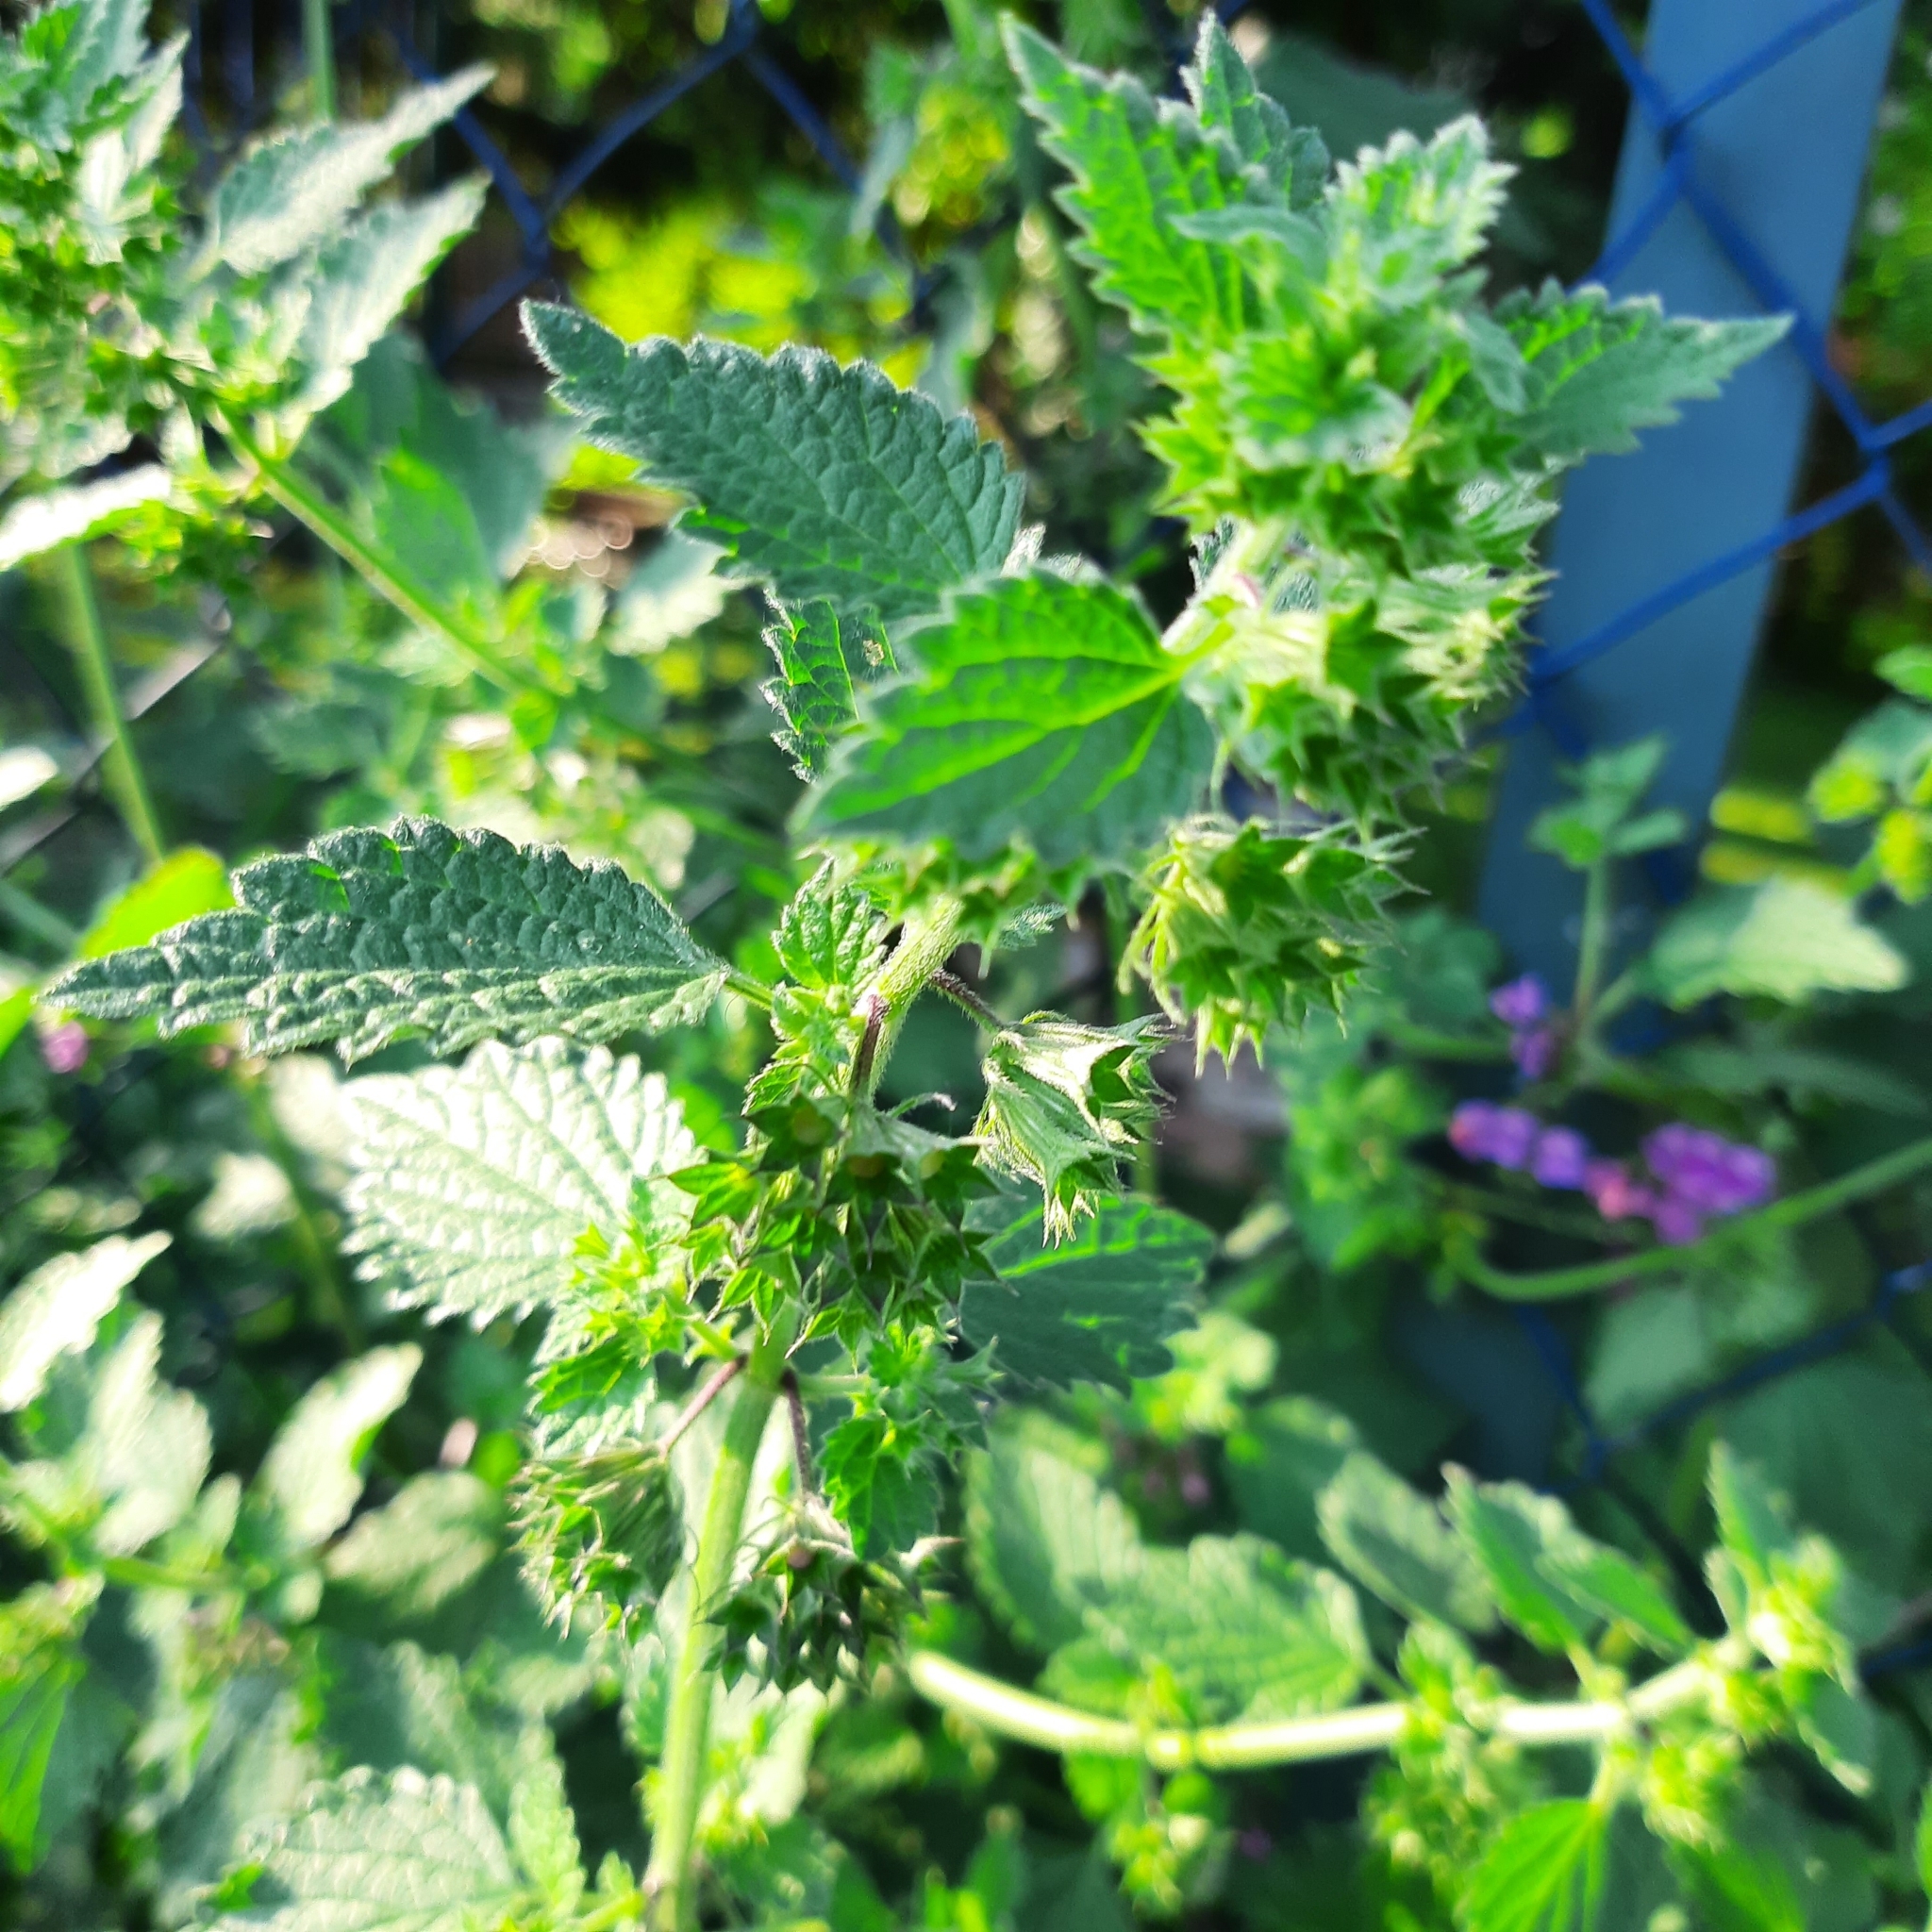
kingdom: Plantae
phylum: Tracheophyta
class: Magnoliopsida
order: Lamiales
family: Lamiaceae
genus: Ballota
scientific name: Ballota nigra
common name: Black horehound
